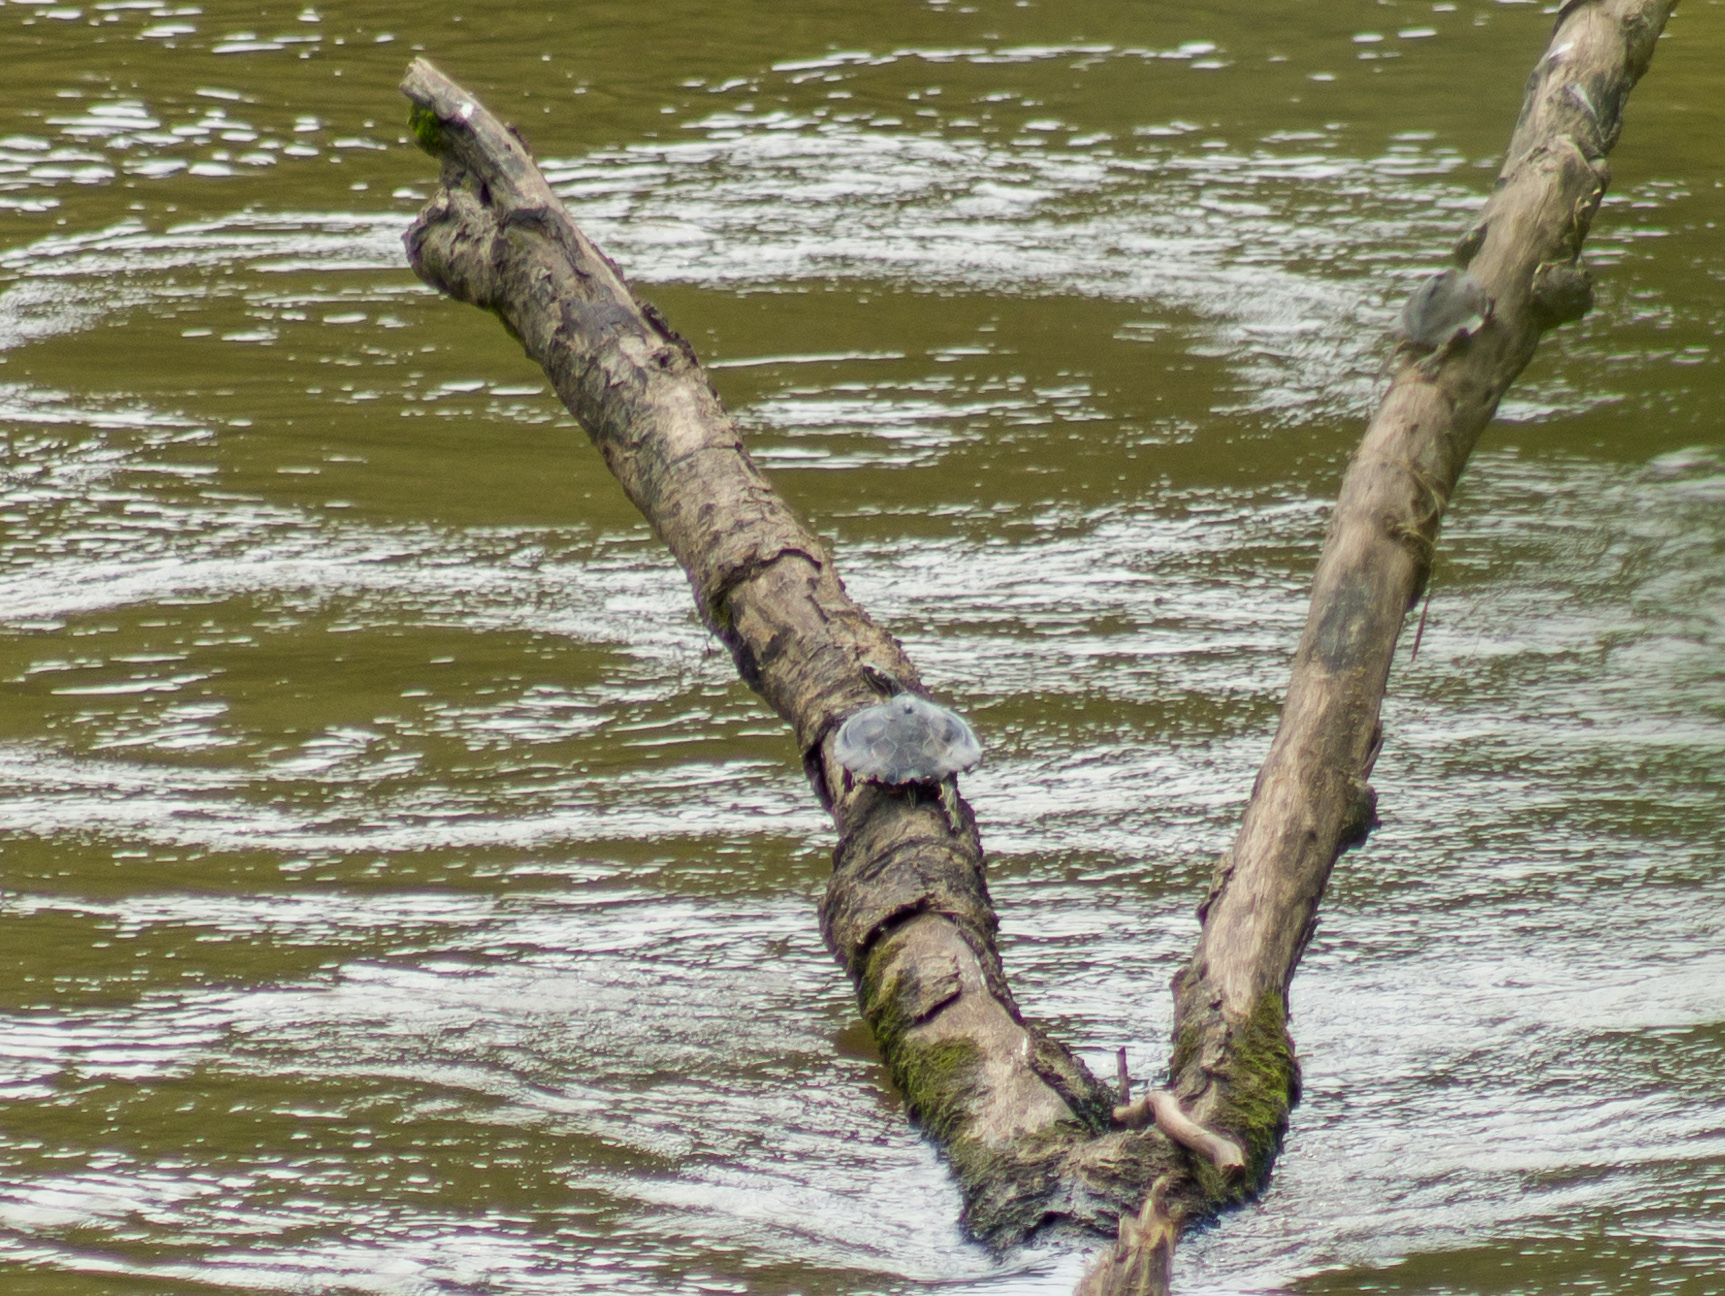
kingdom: Animalia
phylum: Chordata
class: Testudines
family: Emydidae
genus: Graptemys
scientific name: Graptemys oculifera
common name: Ringed map turtle
